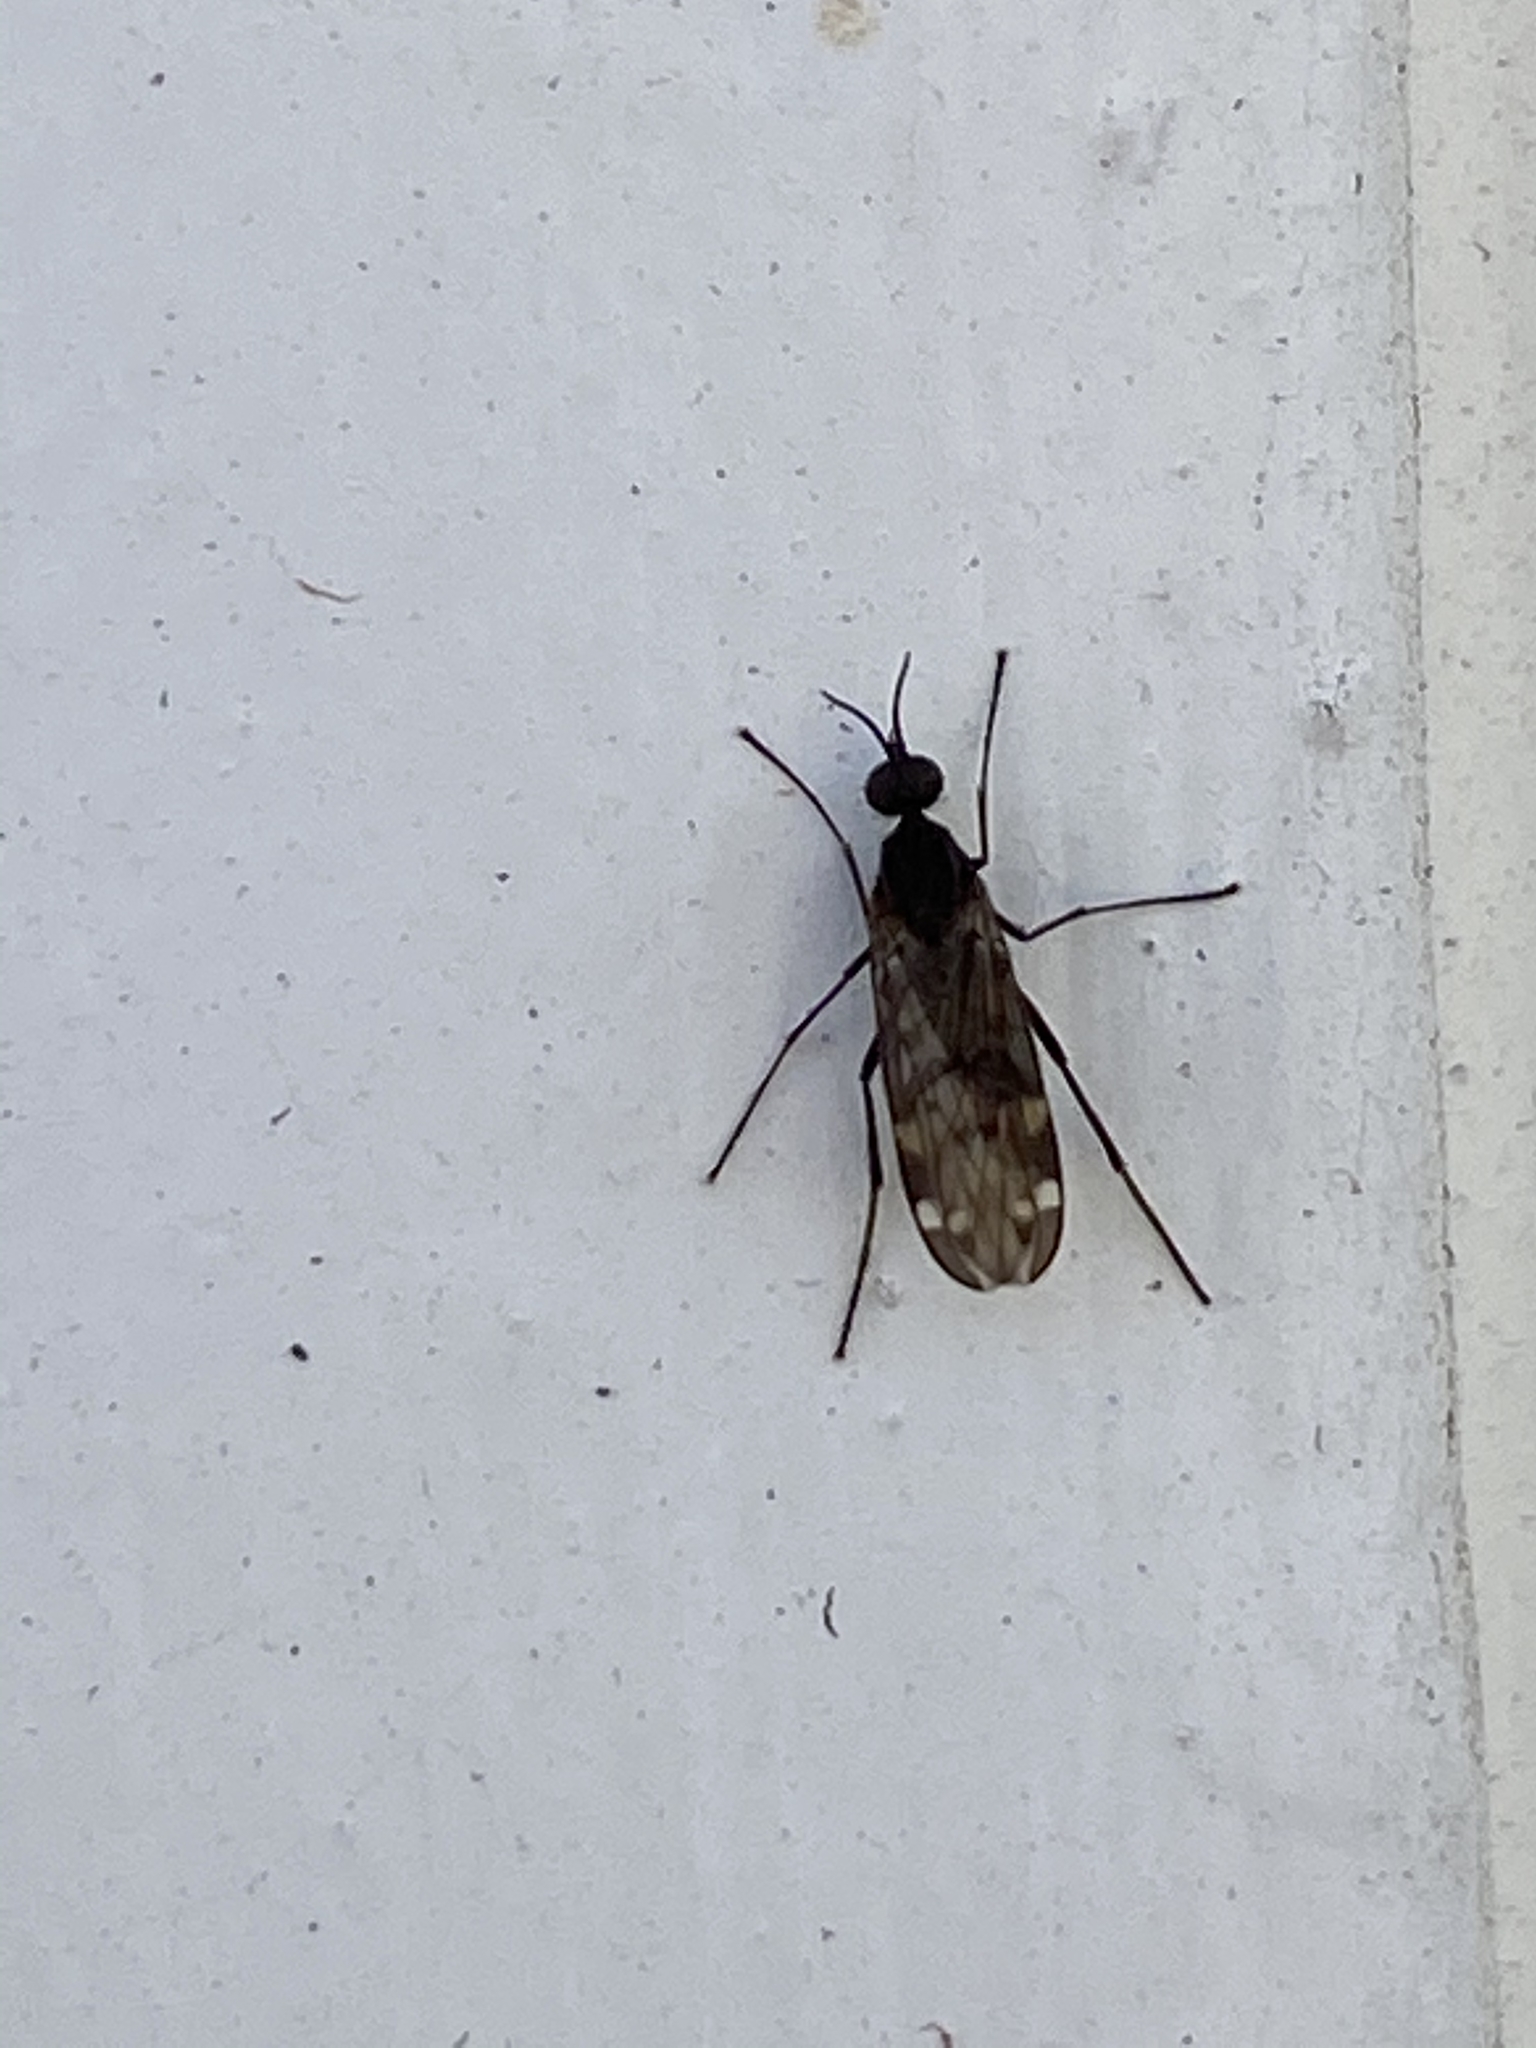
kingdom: Animalia
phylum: Arthropoda
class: Insecta
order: Diptera
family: Anisopodidae
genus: Sylvicola
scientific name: Sylvicola alternata
